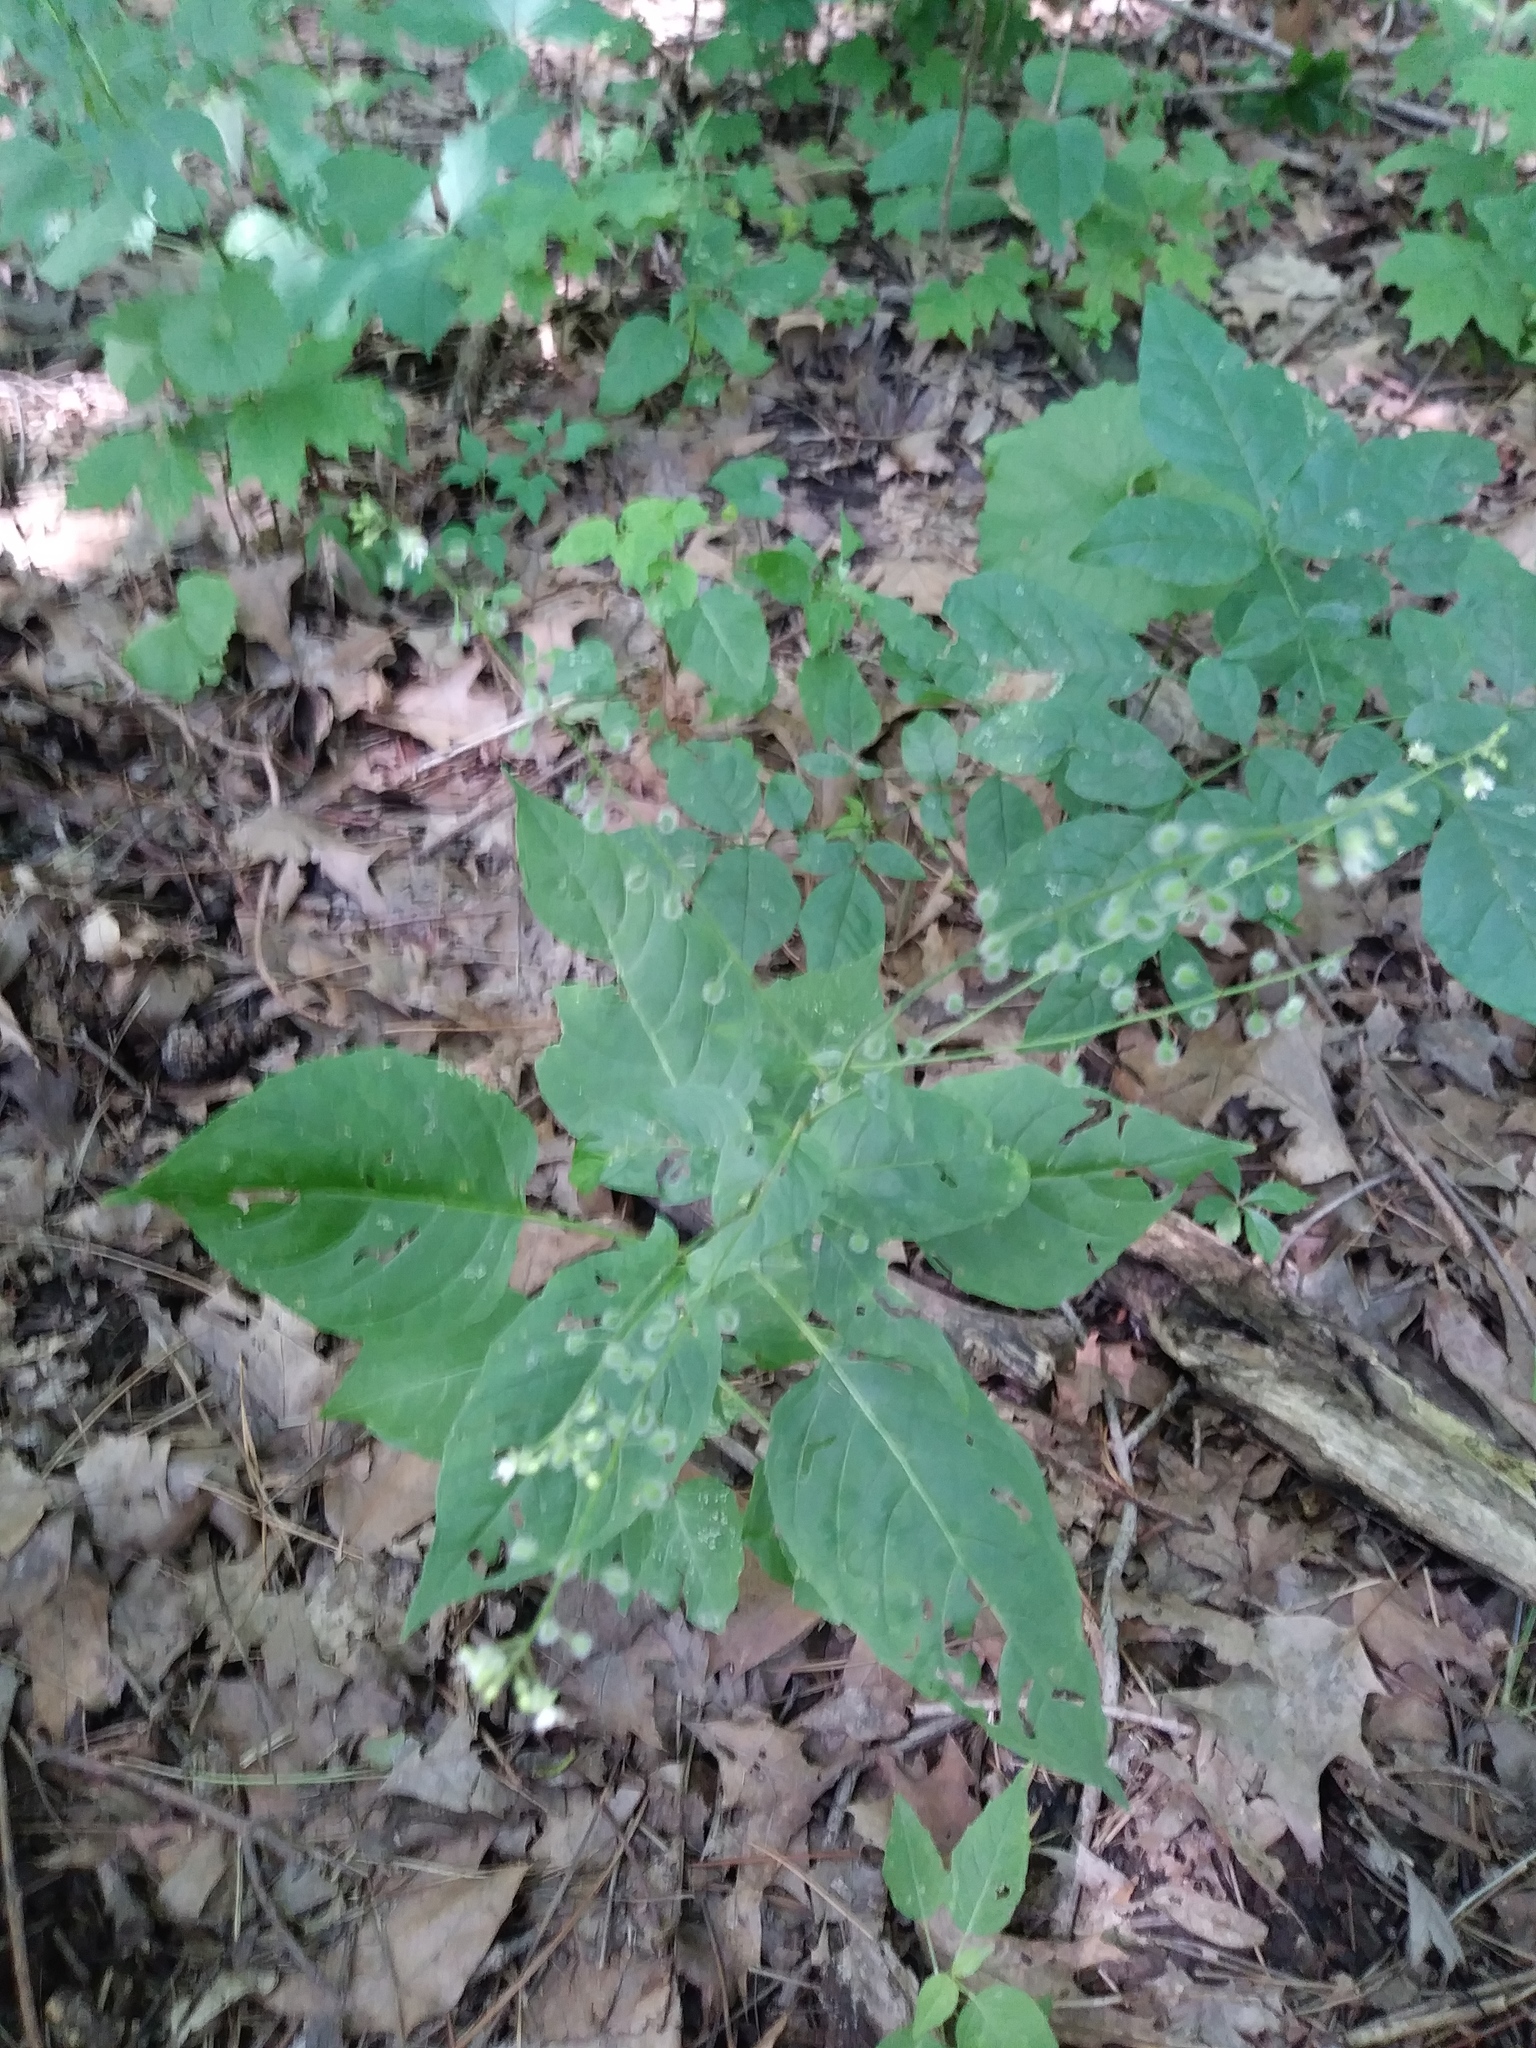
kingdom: Plantae
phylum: Tracheophyta
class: Magnoliopsida
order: Myrtales
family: Onagraceae
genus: Circaea
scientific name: Circaea canadensis
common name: Broad-leaved enchanter's nightshade
